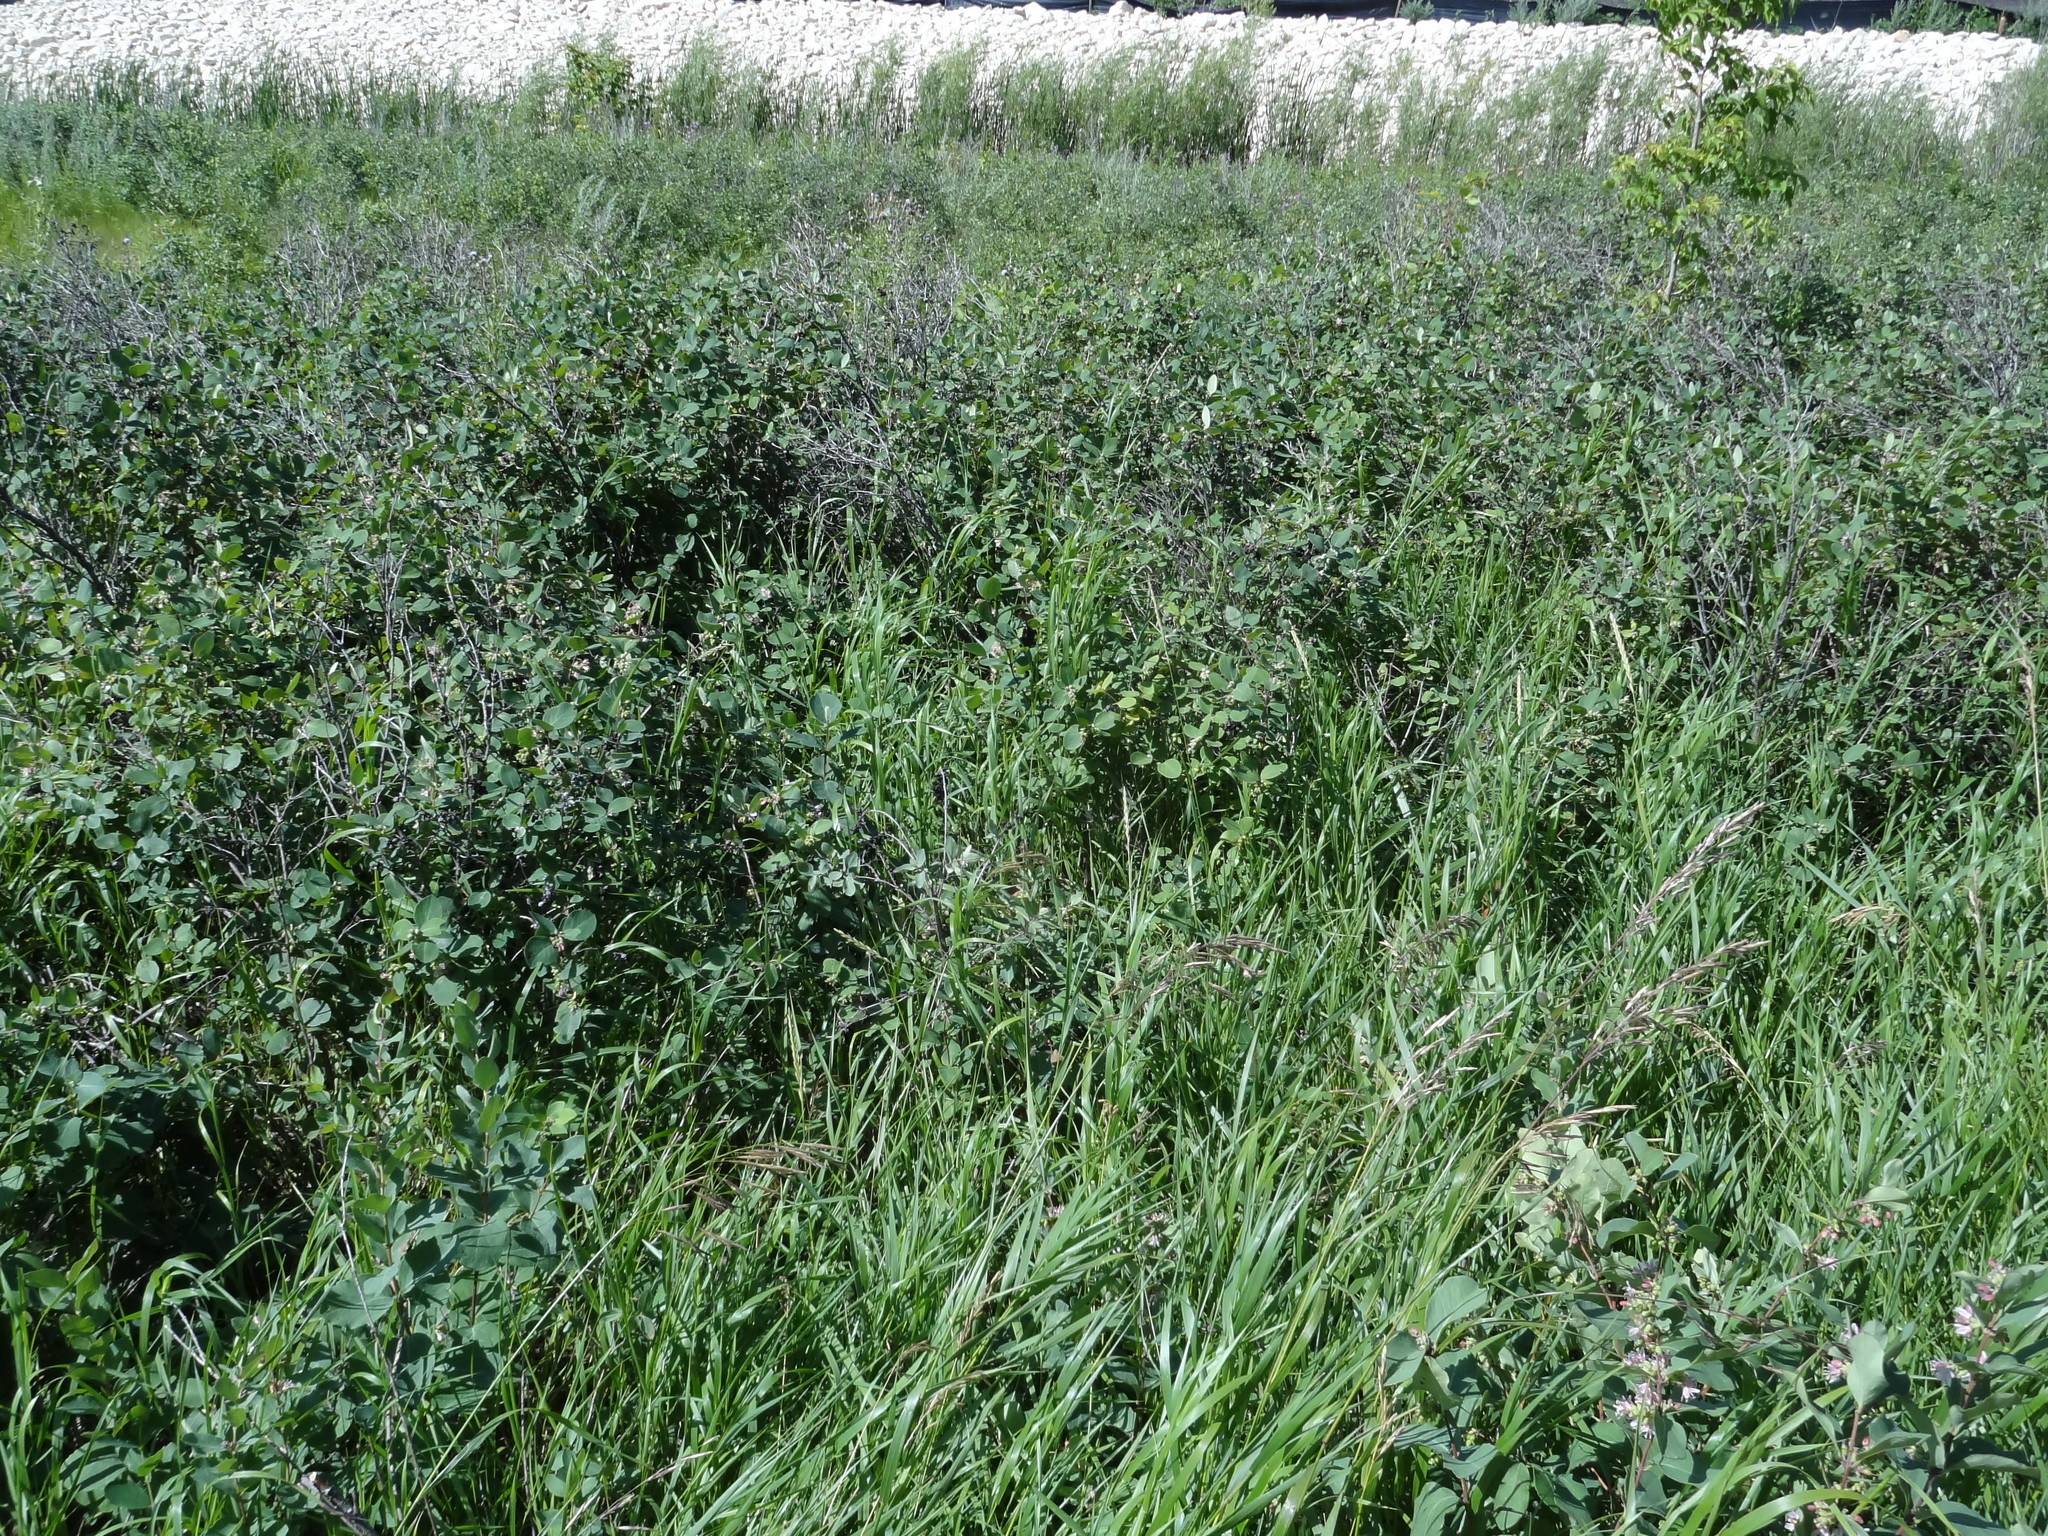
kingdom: Plantae
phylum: Tracheophyta
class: Magnoliopsida
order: Dipsacales
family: Caprifoliaceae
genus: Symphoricarpos
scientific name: Symphoricarpos occidentalis
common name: Wolfberry
